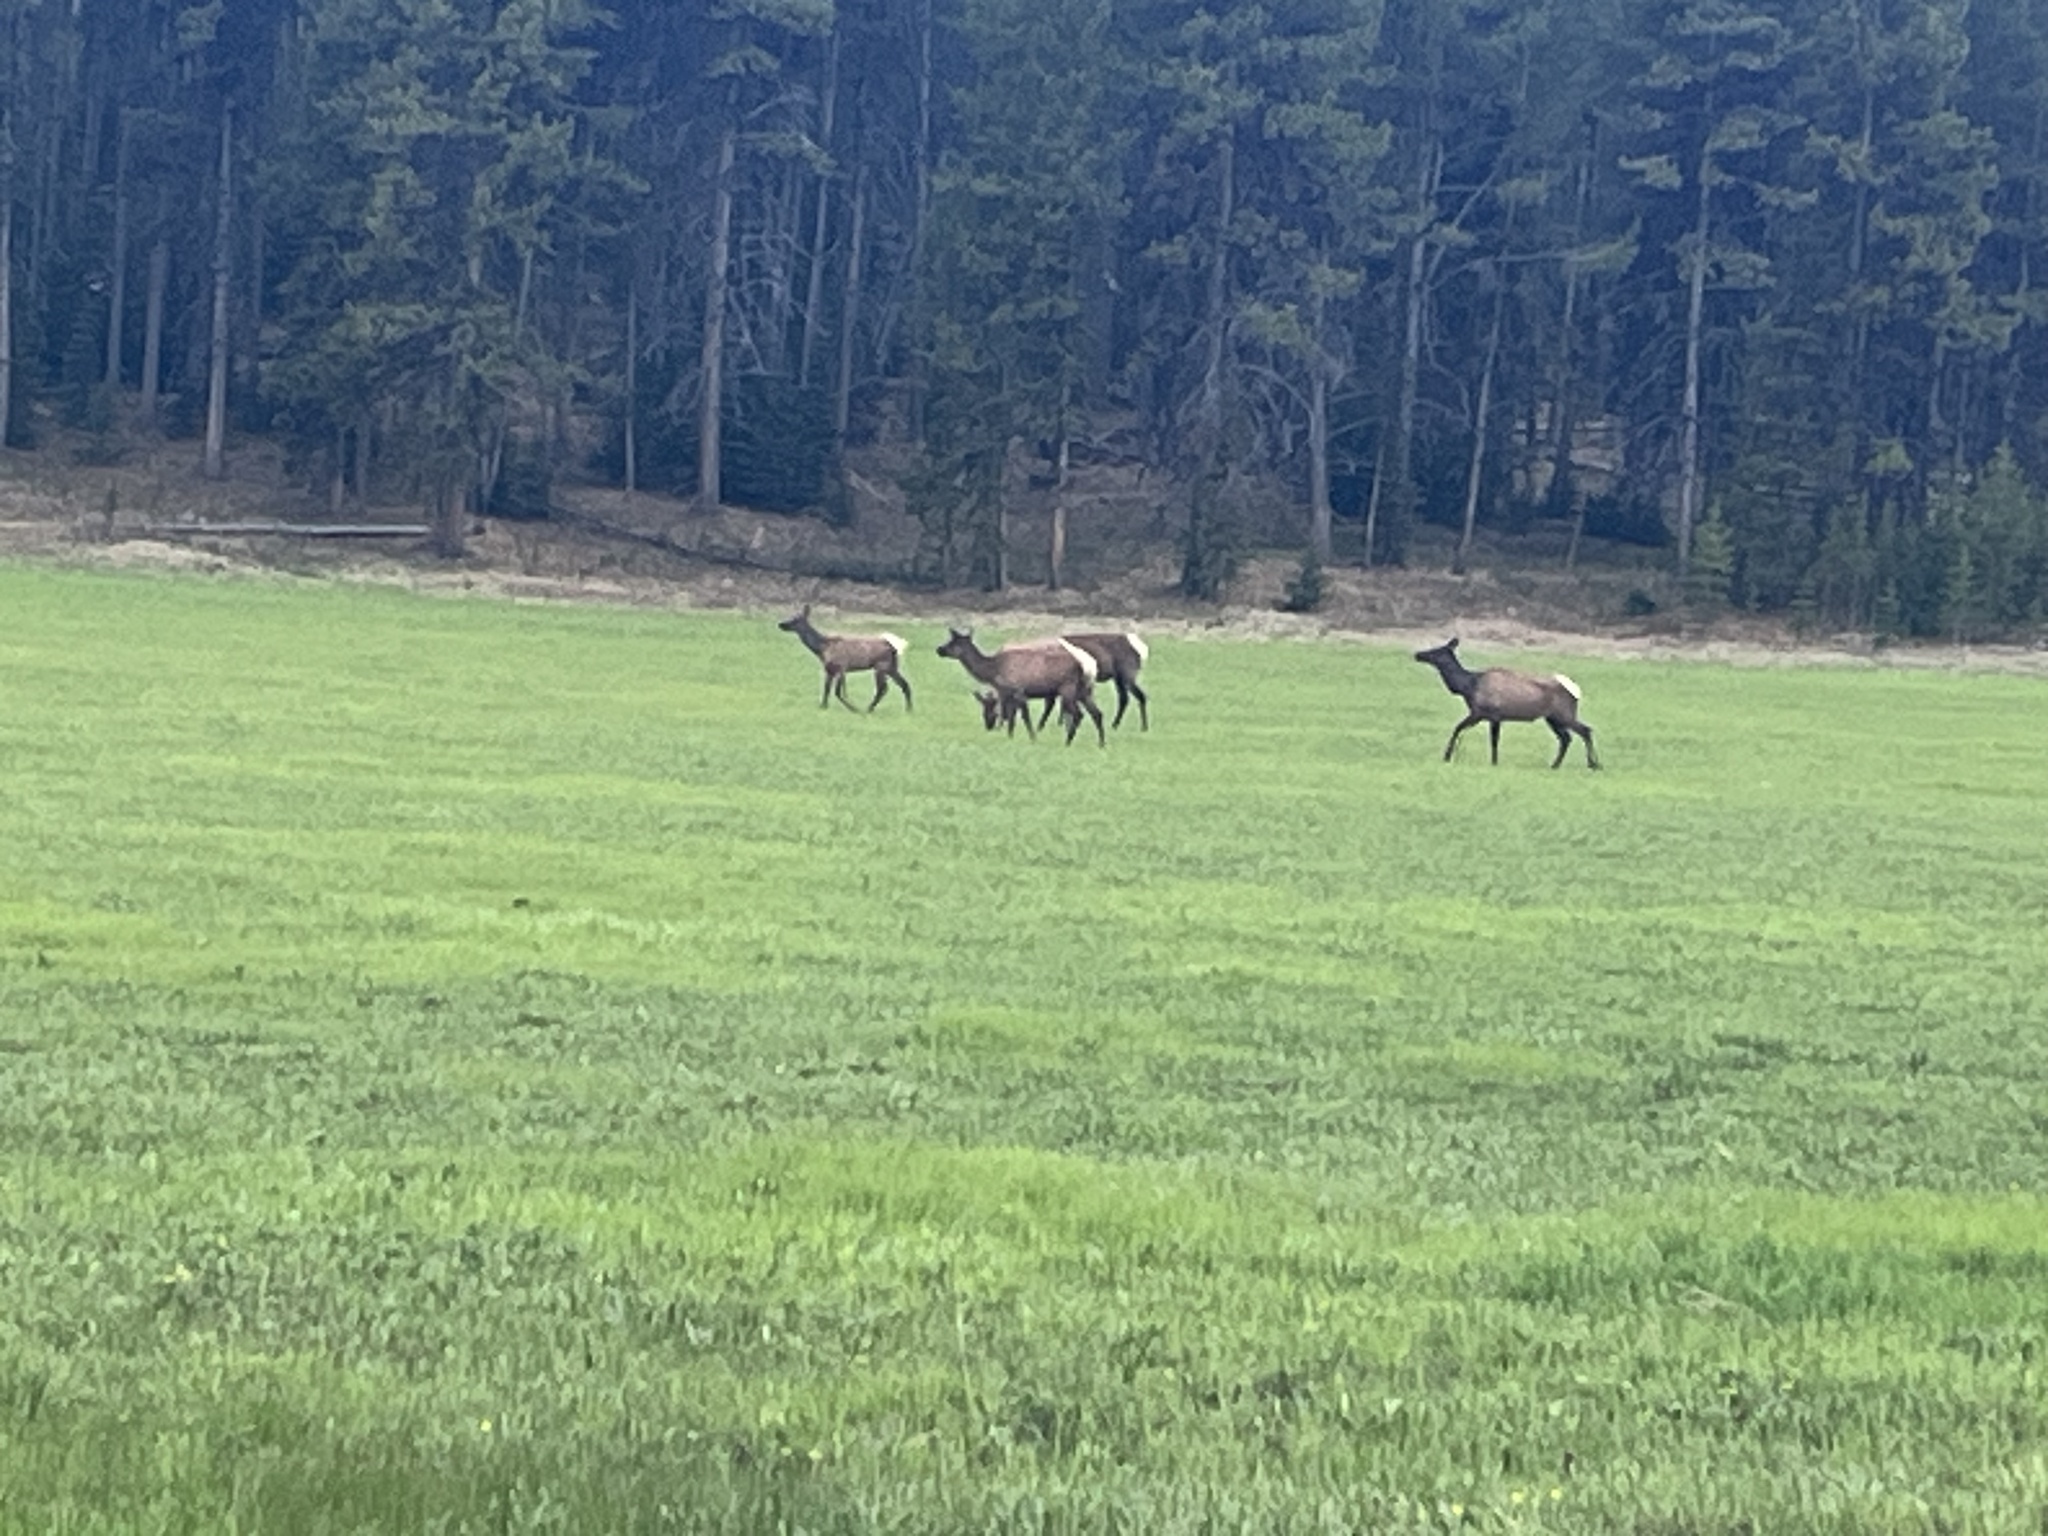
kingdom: Animalia
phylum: Chordata
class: Mammalia
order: Artiodactyla
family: Cervidae
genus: Cervus
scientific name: Cervus elaphus
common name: Red deer
